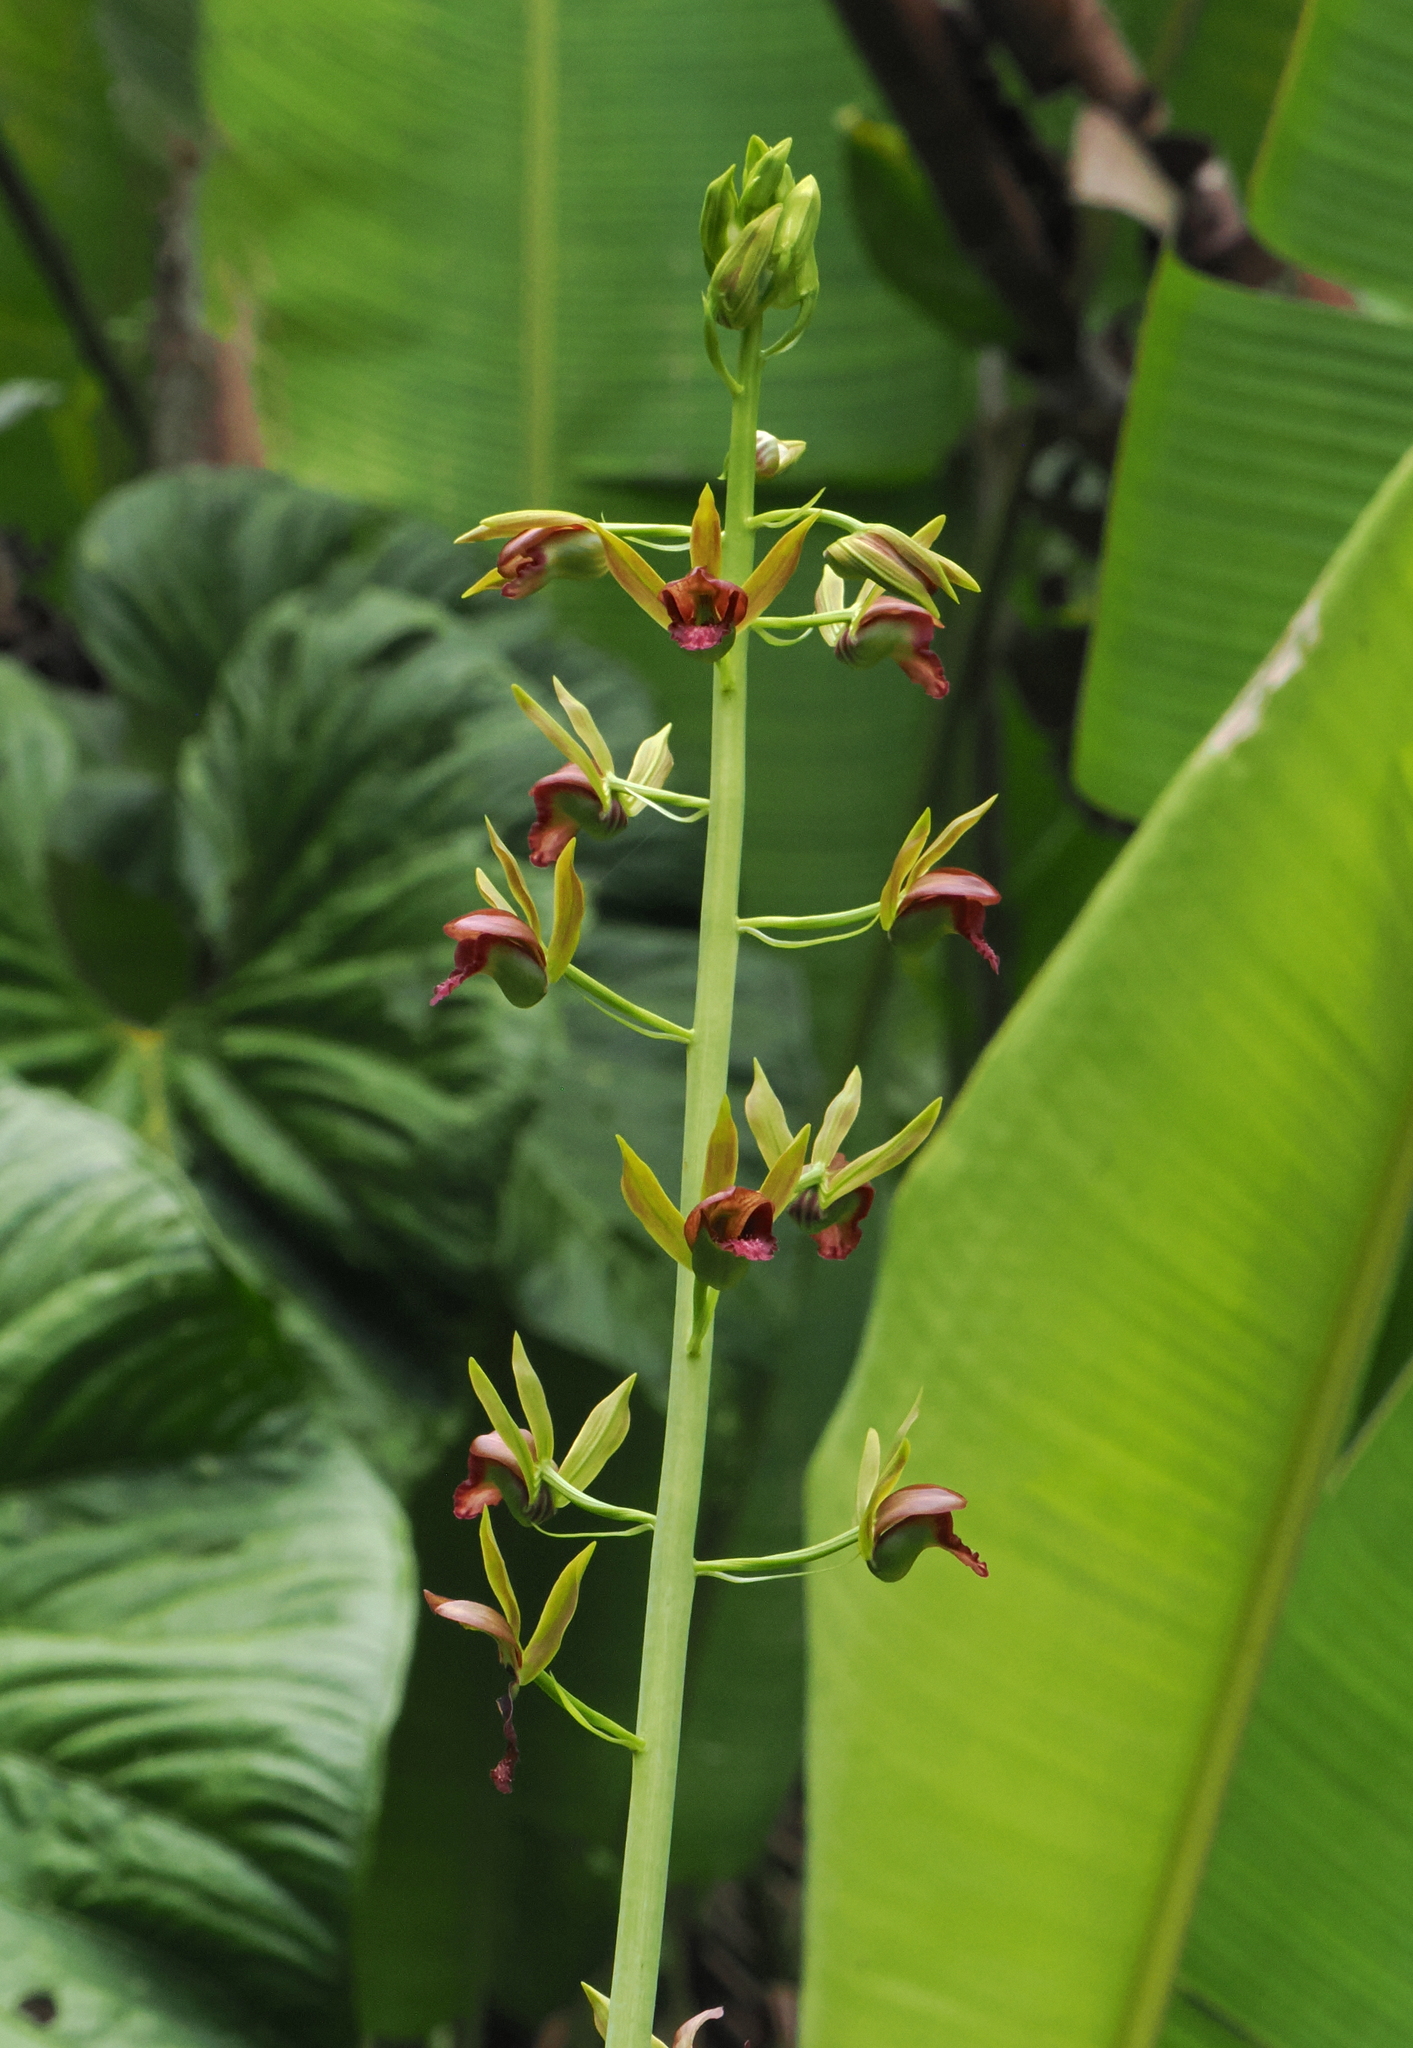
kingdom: Plantae
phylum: Tracheophyta
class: Liliopsida
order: Asparagales
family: Orchidaceae
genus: Eulophia
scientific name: Eulophia alta
